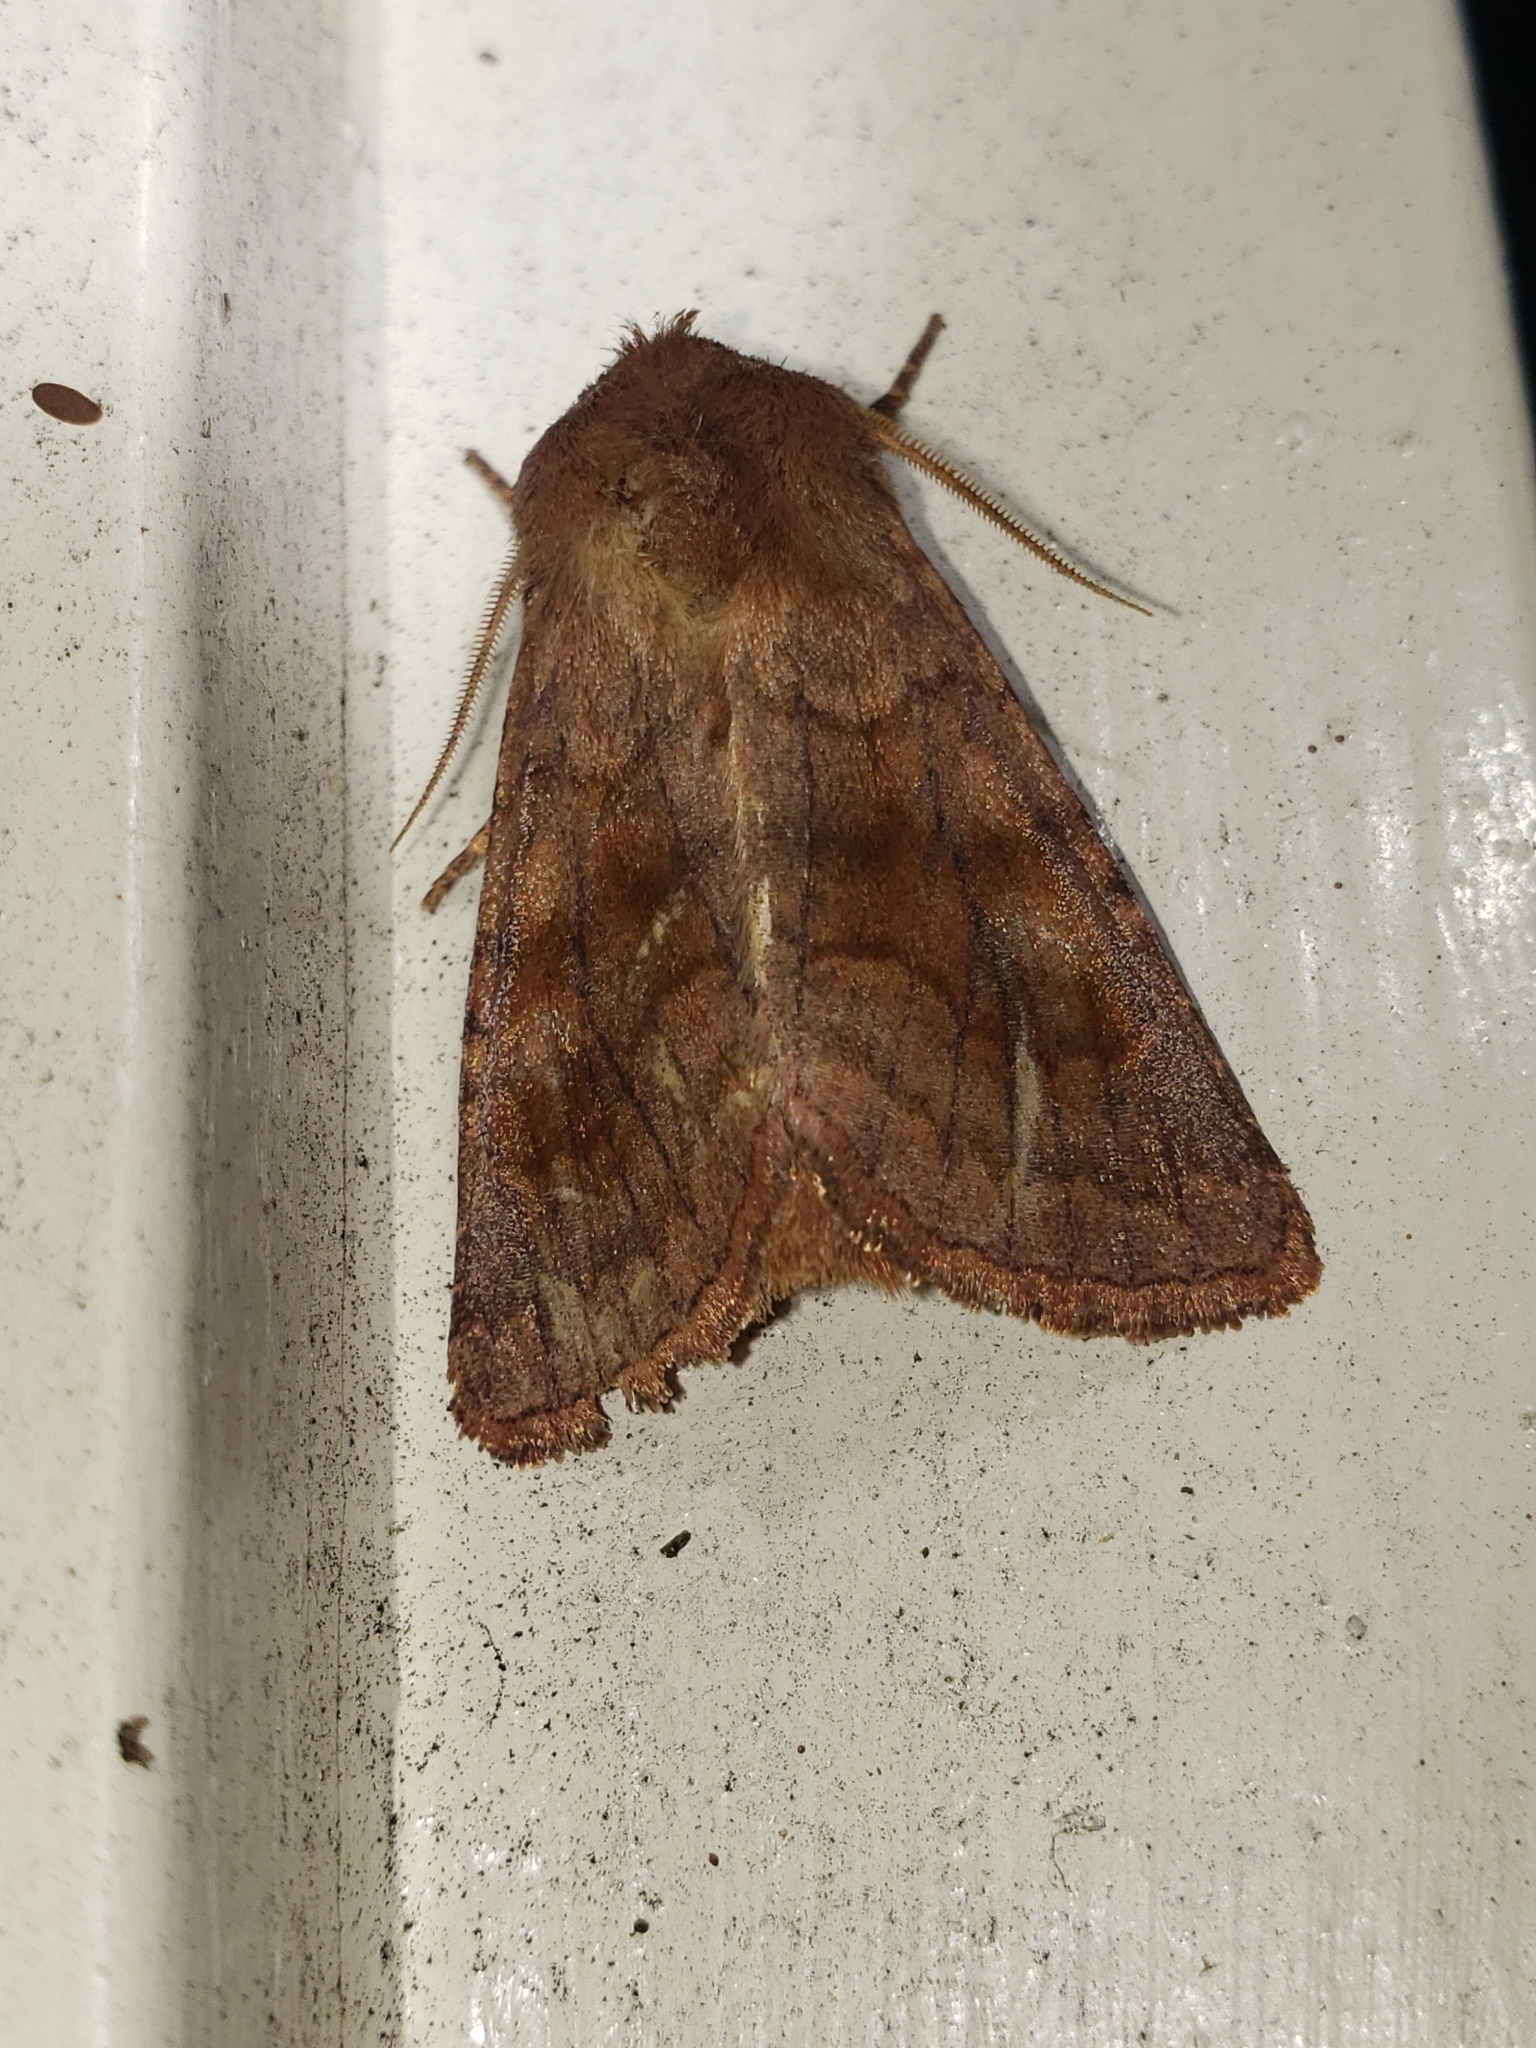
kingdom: Animalia
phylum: Arthropoda
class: Insecta
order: Lepidoptera
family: Noctuidae
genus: Nephelodes
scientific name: Nephelodes minians
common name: Bronzed cutworm
